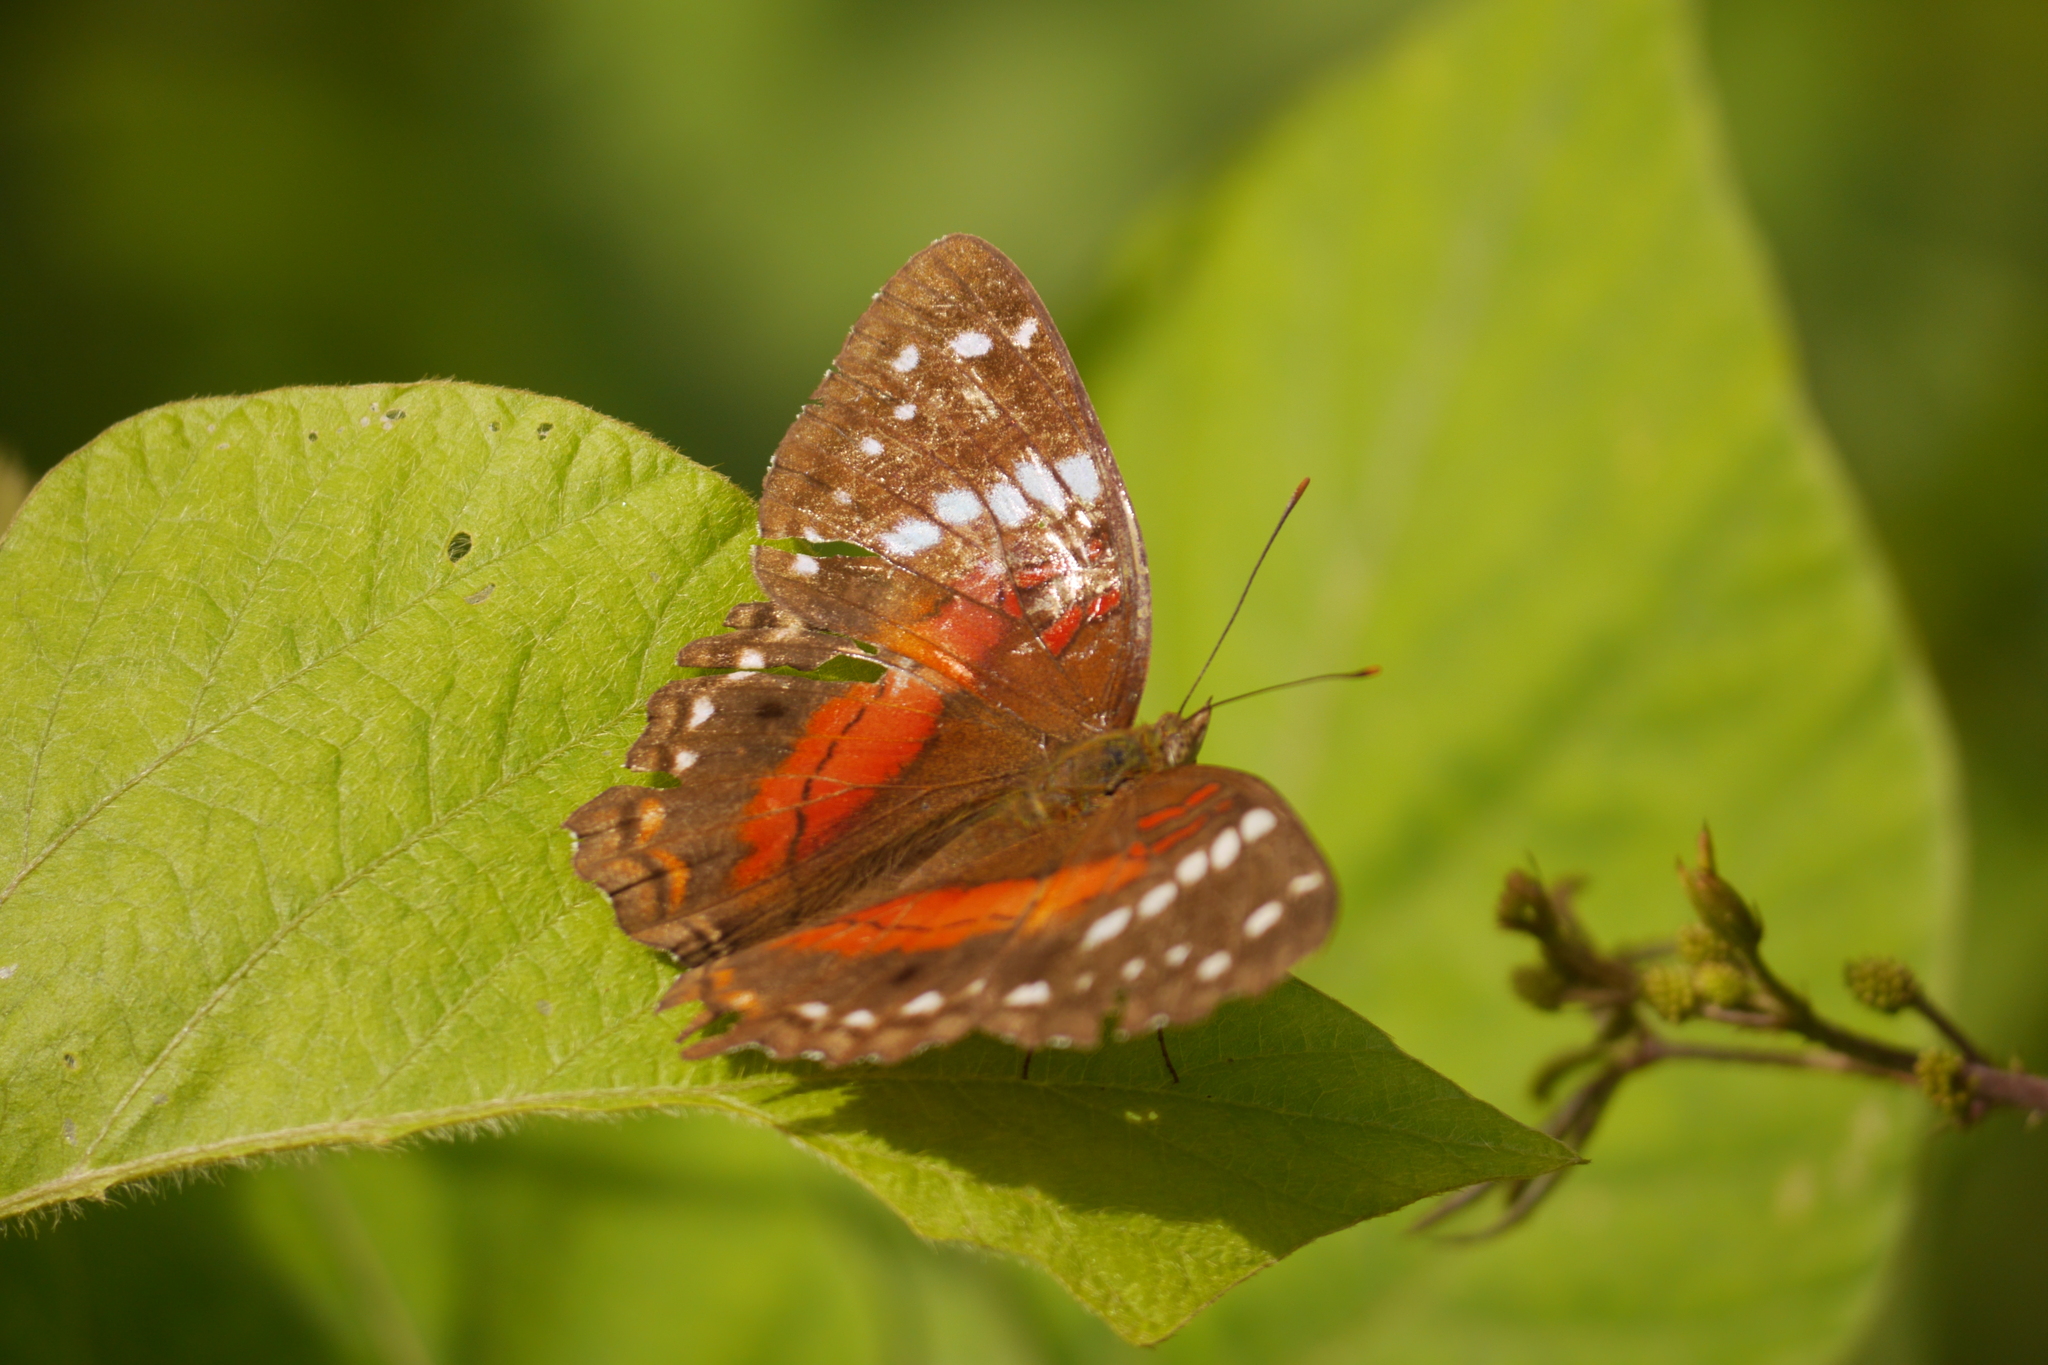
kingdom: Animalia
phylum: Arthropoda
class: Insecta
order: Lepidoptera
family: Nymphalidae
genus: Anartia
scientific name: Anartia amathea
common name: Red peacock
